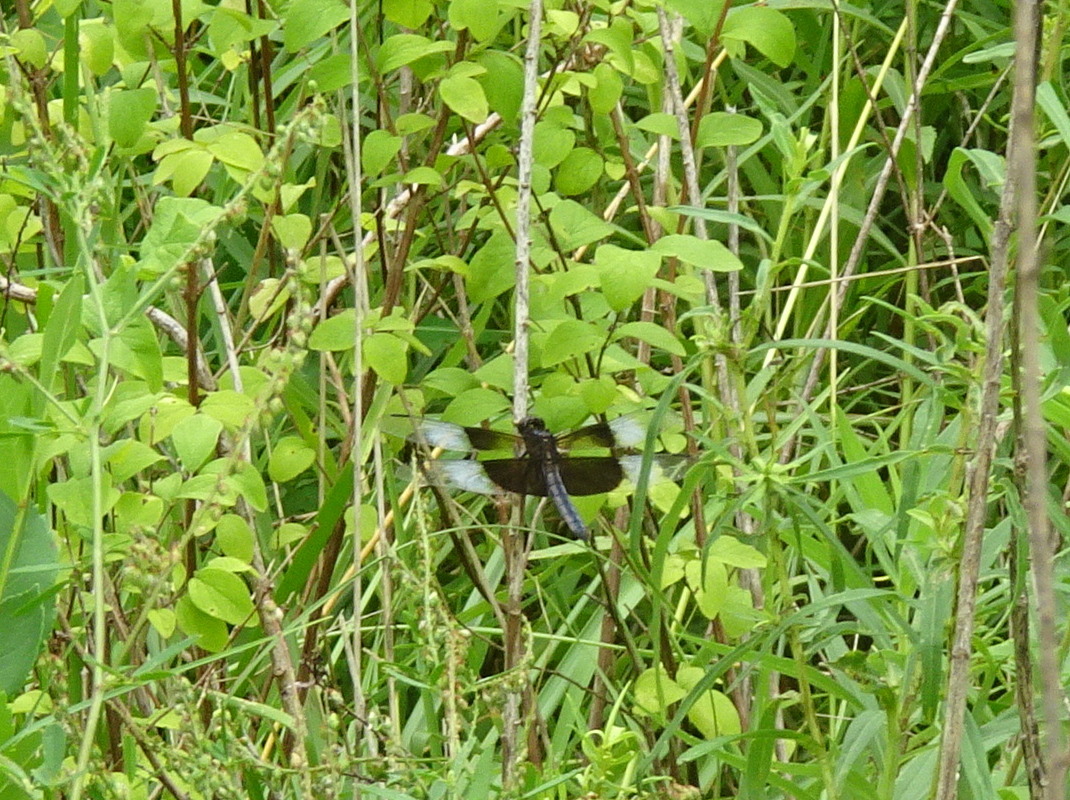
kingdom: Animalia
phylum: Arthropoda
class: Insecta
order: Odonata
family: Libellulidae
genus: Libellula
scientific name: Libellula luctuosa
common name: Widow skimmer
